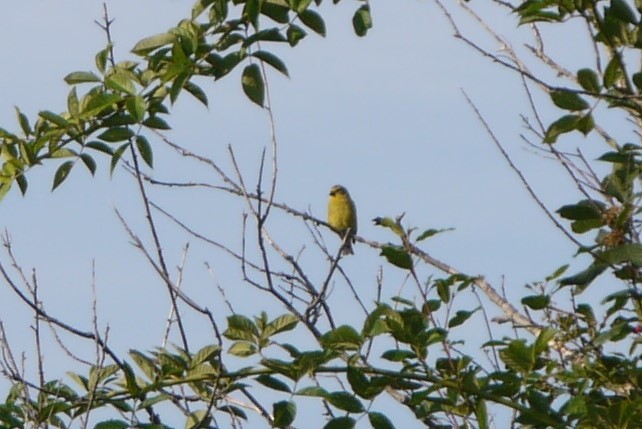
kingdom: Animalia
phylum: Chordata
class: Aves
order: Passeriformes
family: Fringillidae
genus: Spinus
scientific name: Spinus tristis
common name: American goldfinch
